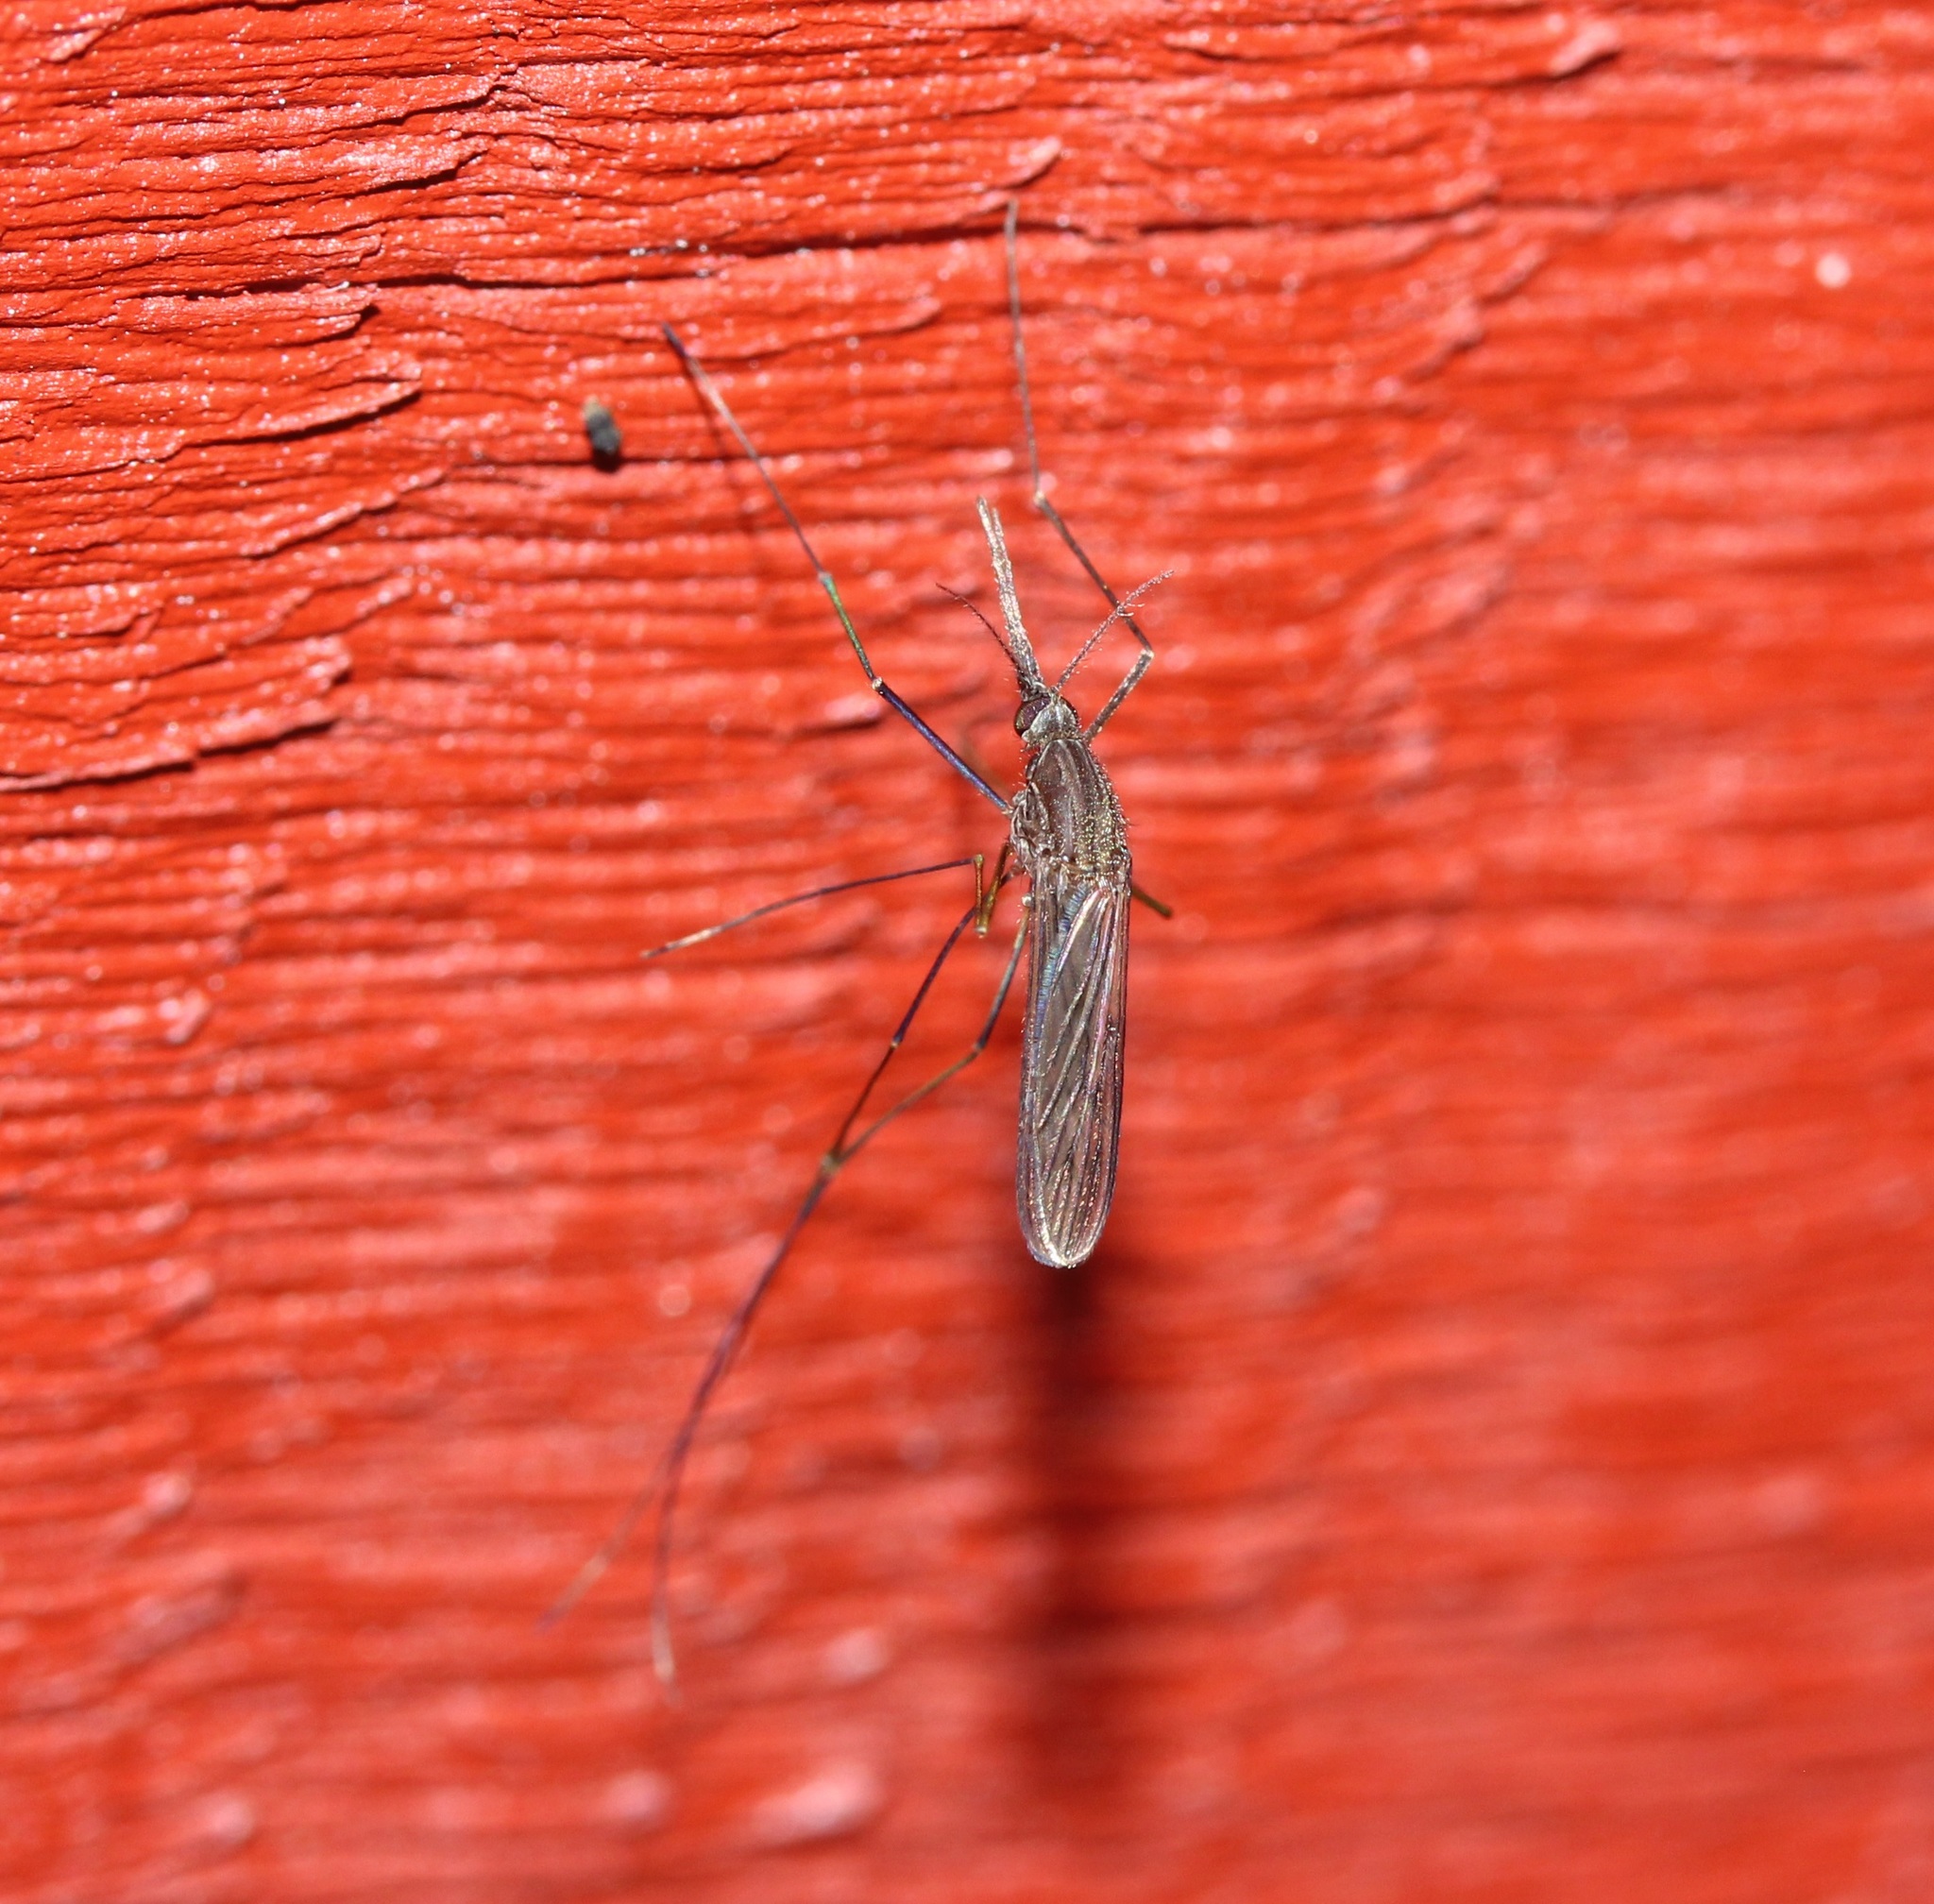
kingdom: Animalia
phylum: Arthropoda
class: Insecta
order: Diptera
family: Culicidae
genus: Anopheles
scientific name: Anopheles walkeri
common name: Walker's anopheles
